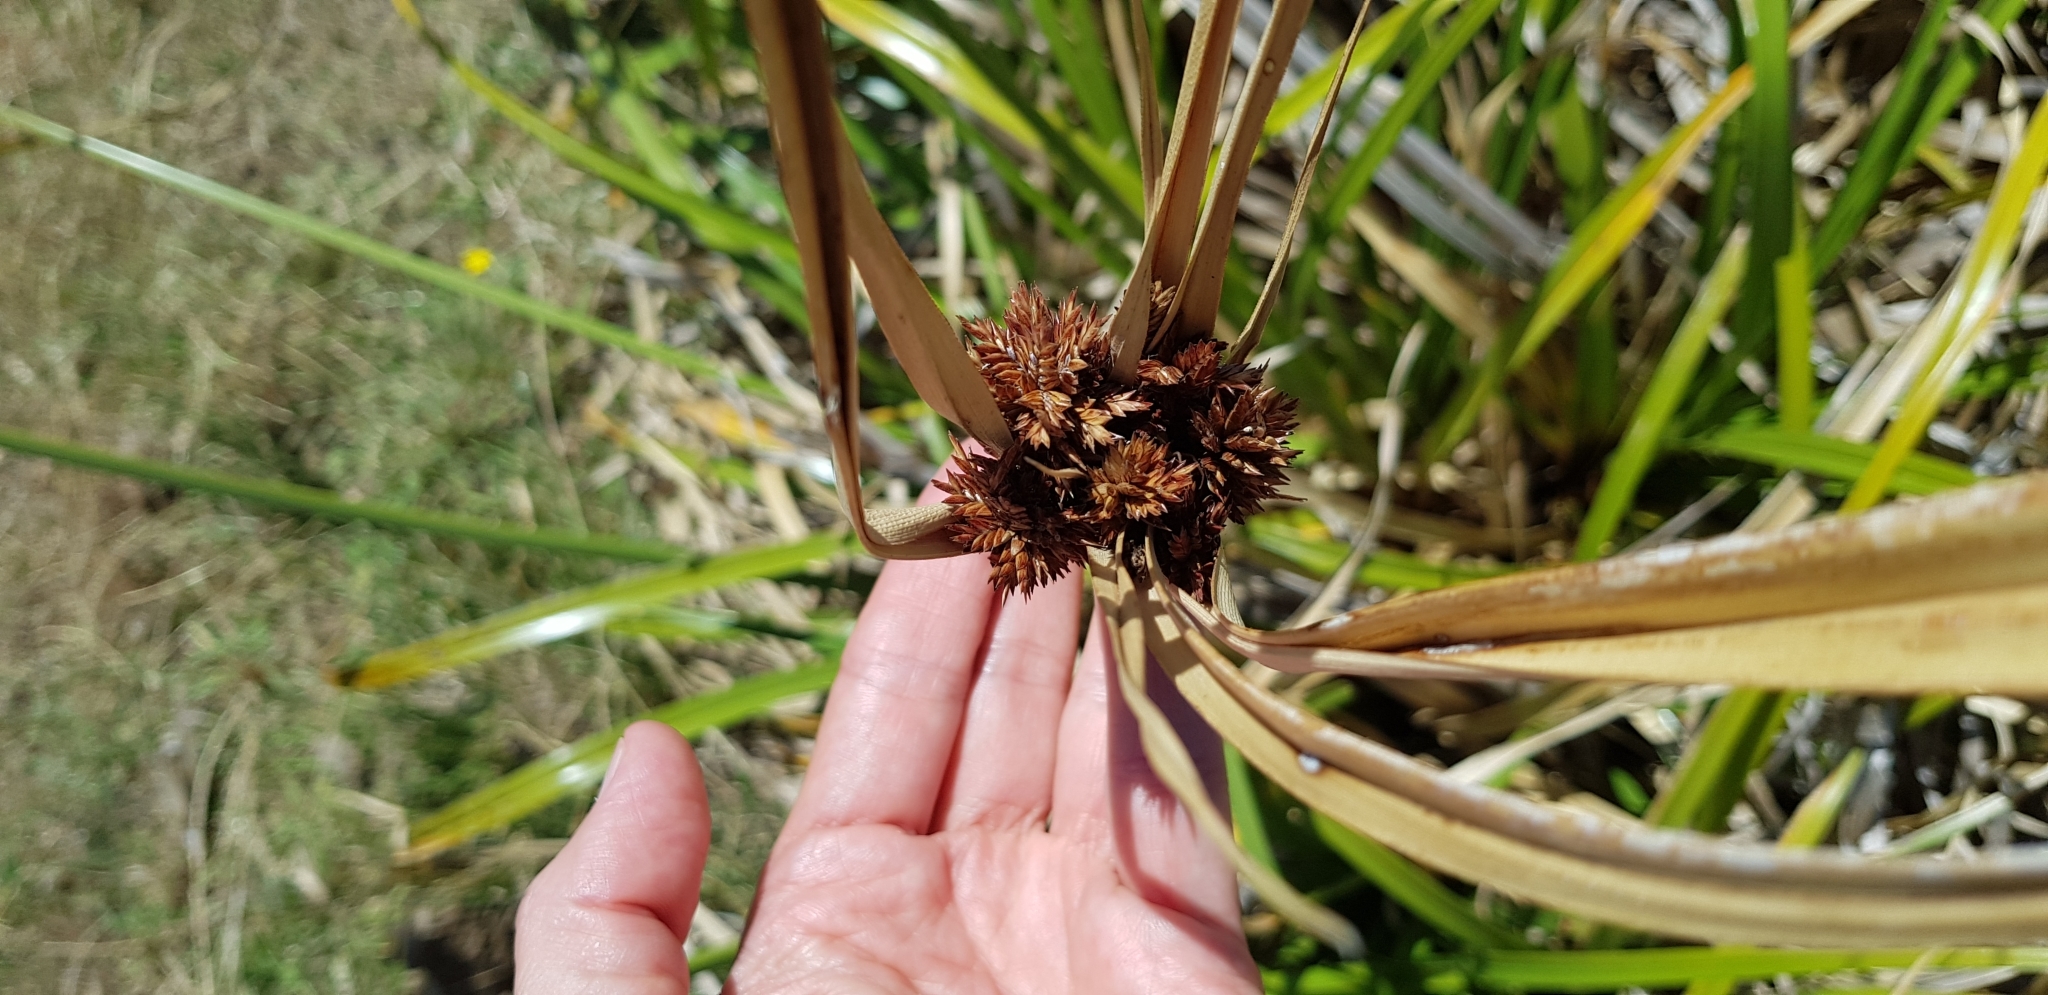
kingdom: Plantae
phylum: Tracheophyta
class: Liliopsida
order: Poales
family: Cyperaceae
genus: Cyperus
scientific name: Cyperus ustulatus
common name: Giant umbrella-sedge
